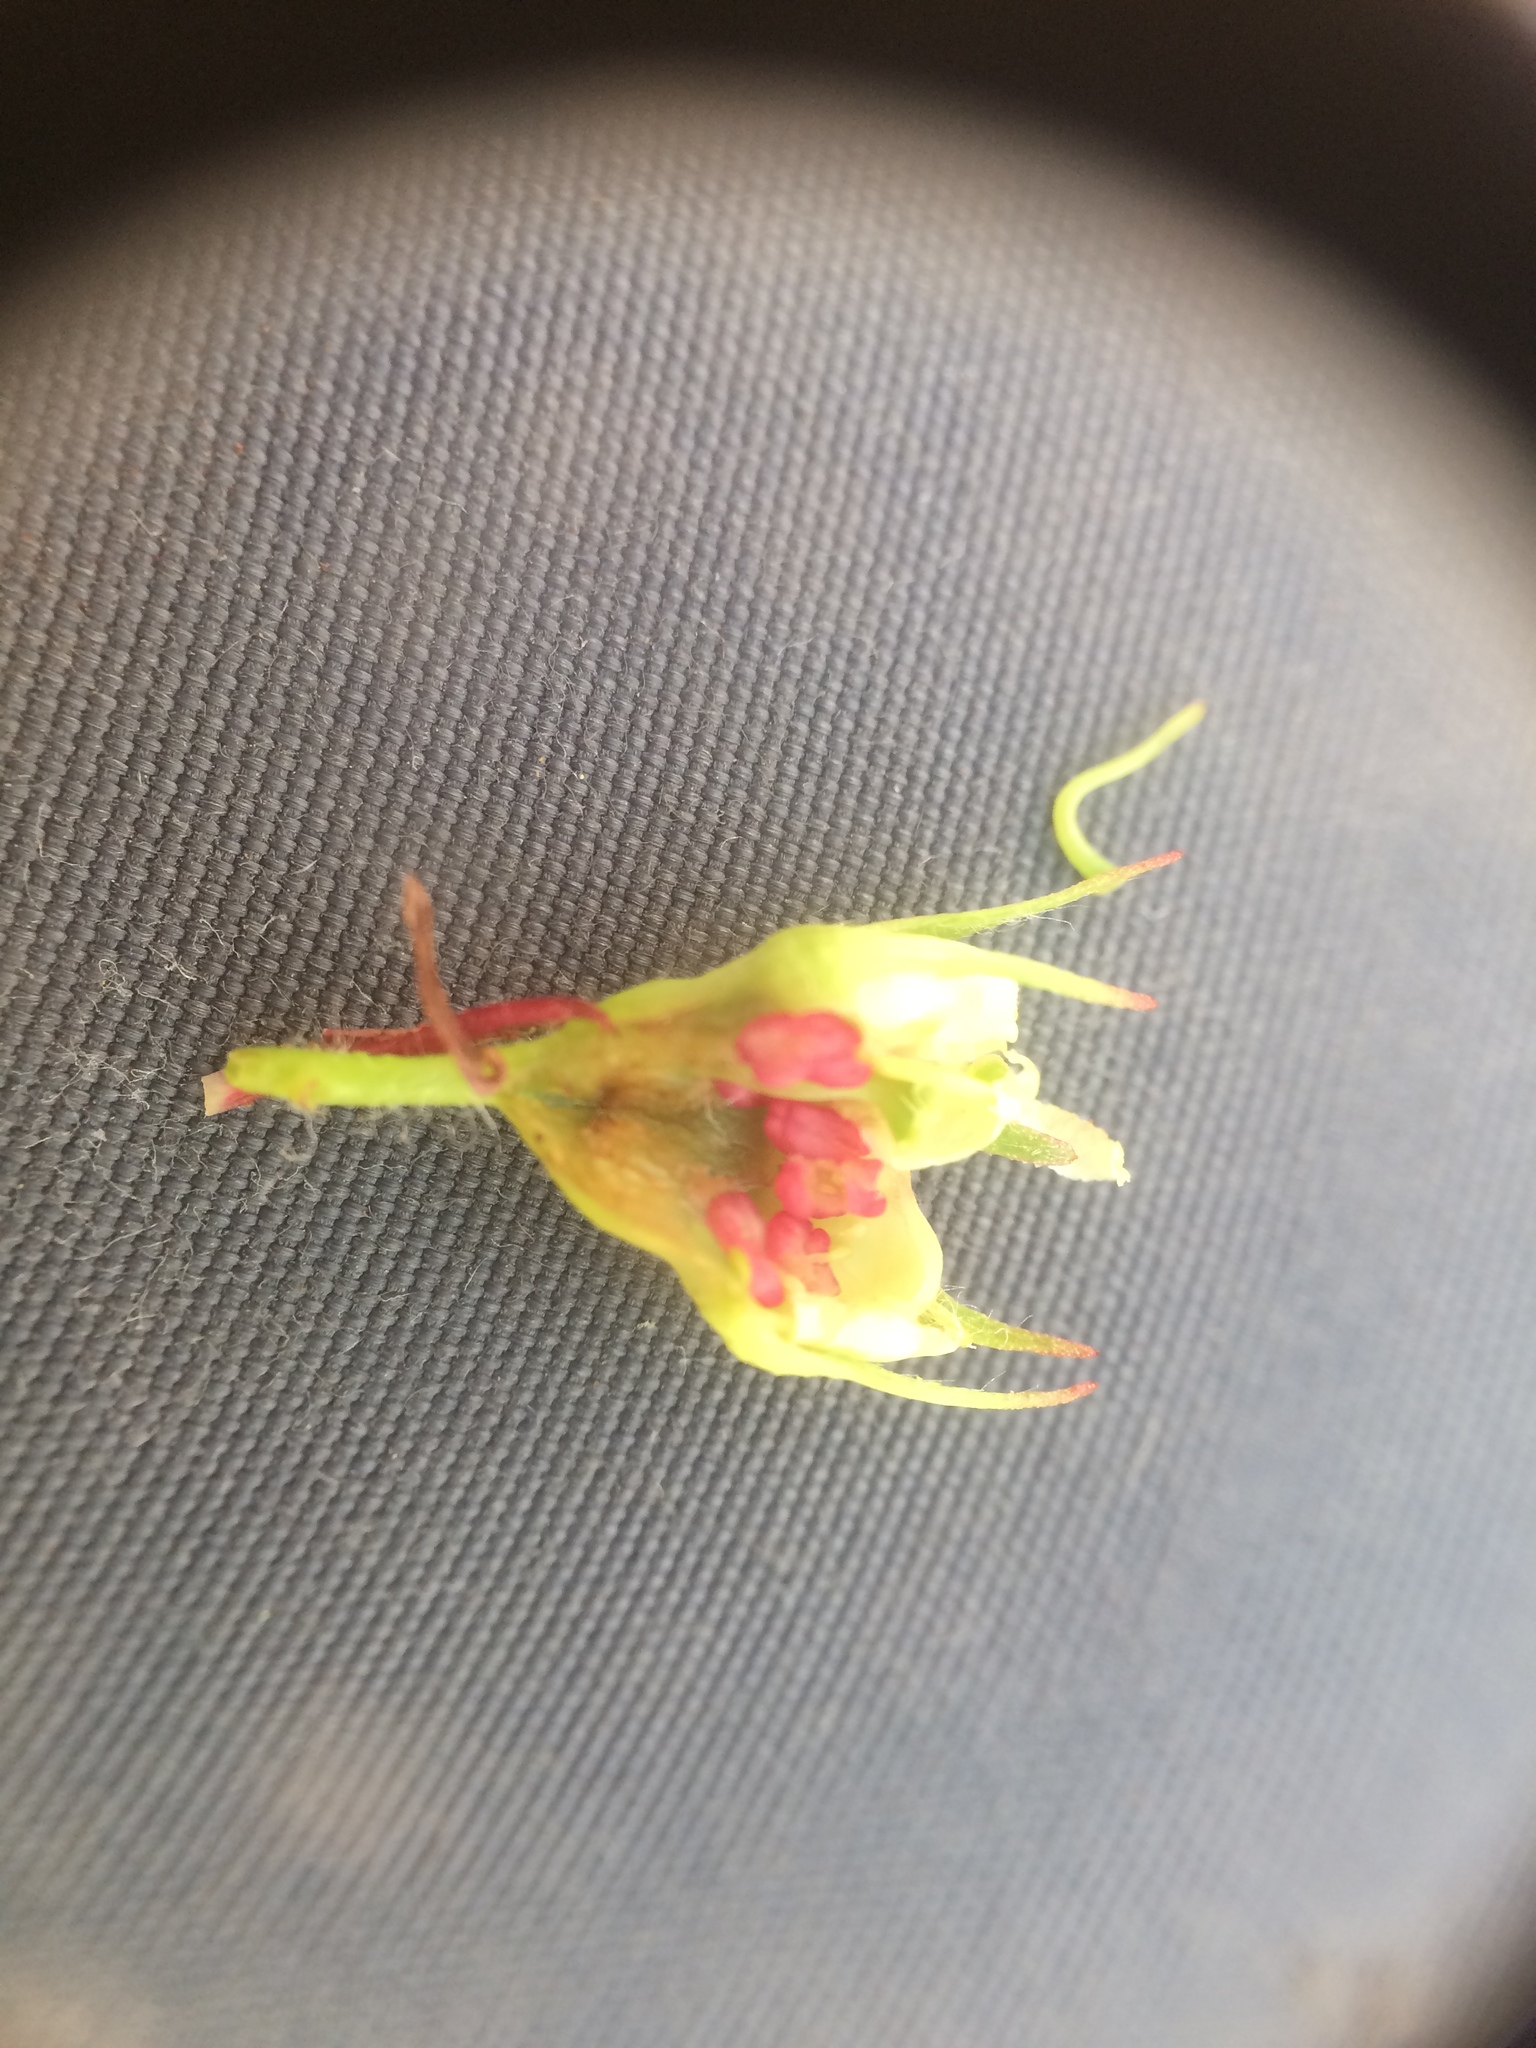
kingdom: Plantae
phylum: Tracheophyta
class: Magnoliopsida
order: Rosales
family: Rosaceae
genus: Crataegus
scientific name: Crataegus succulenta
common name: Fleshy hawthorn
